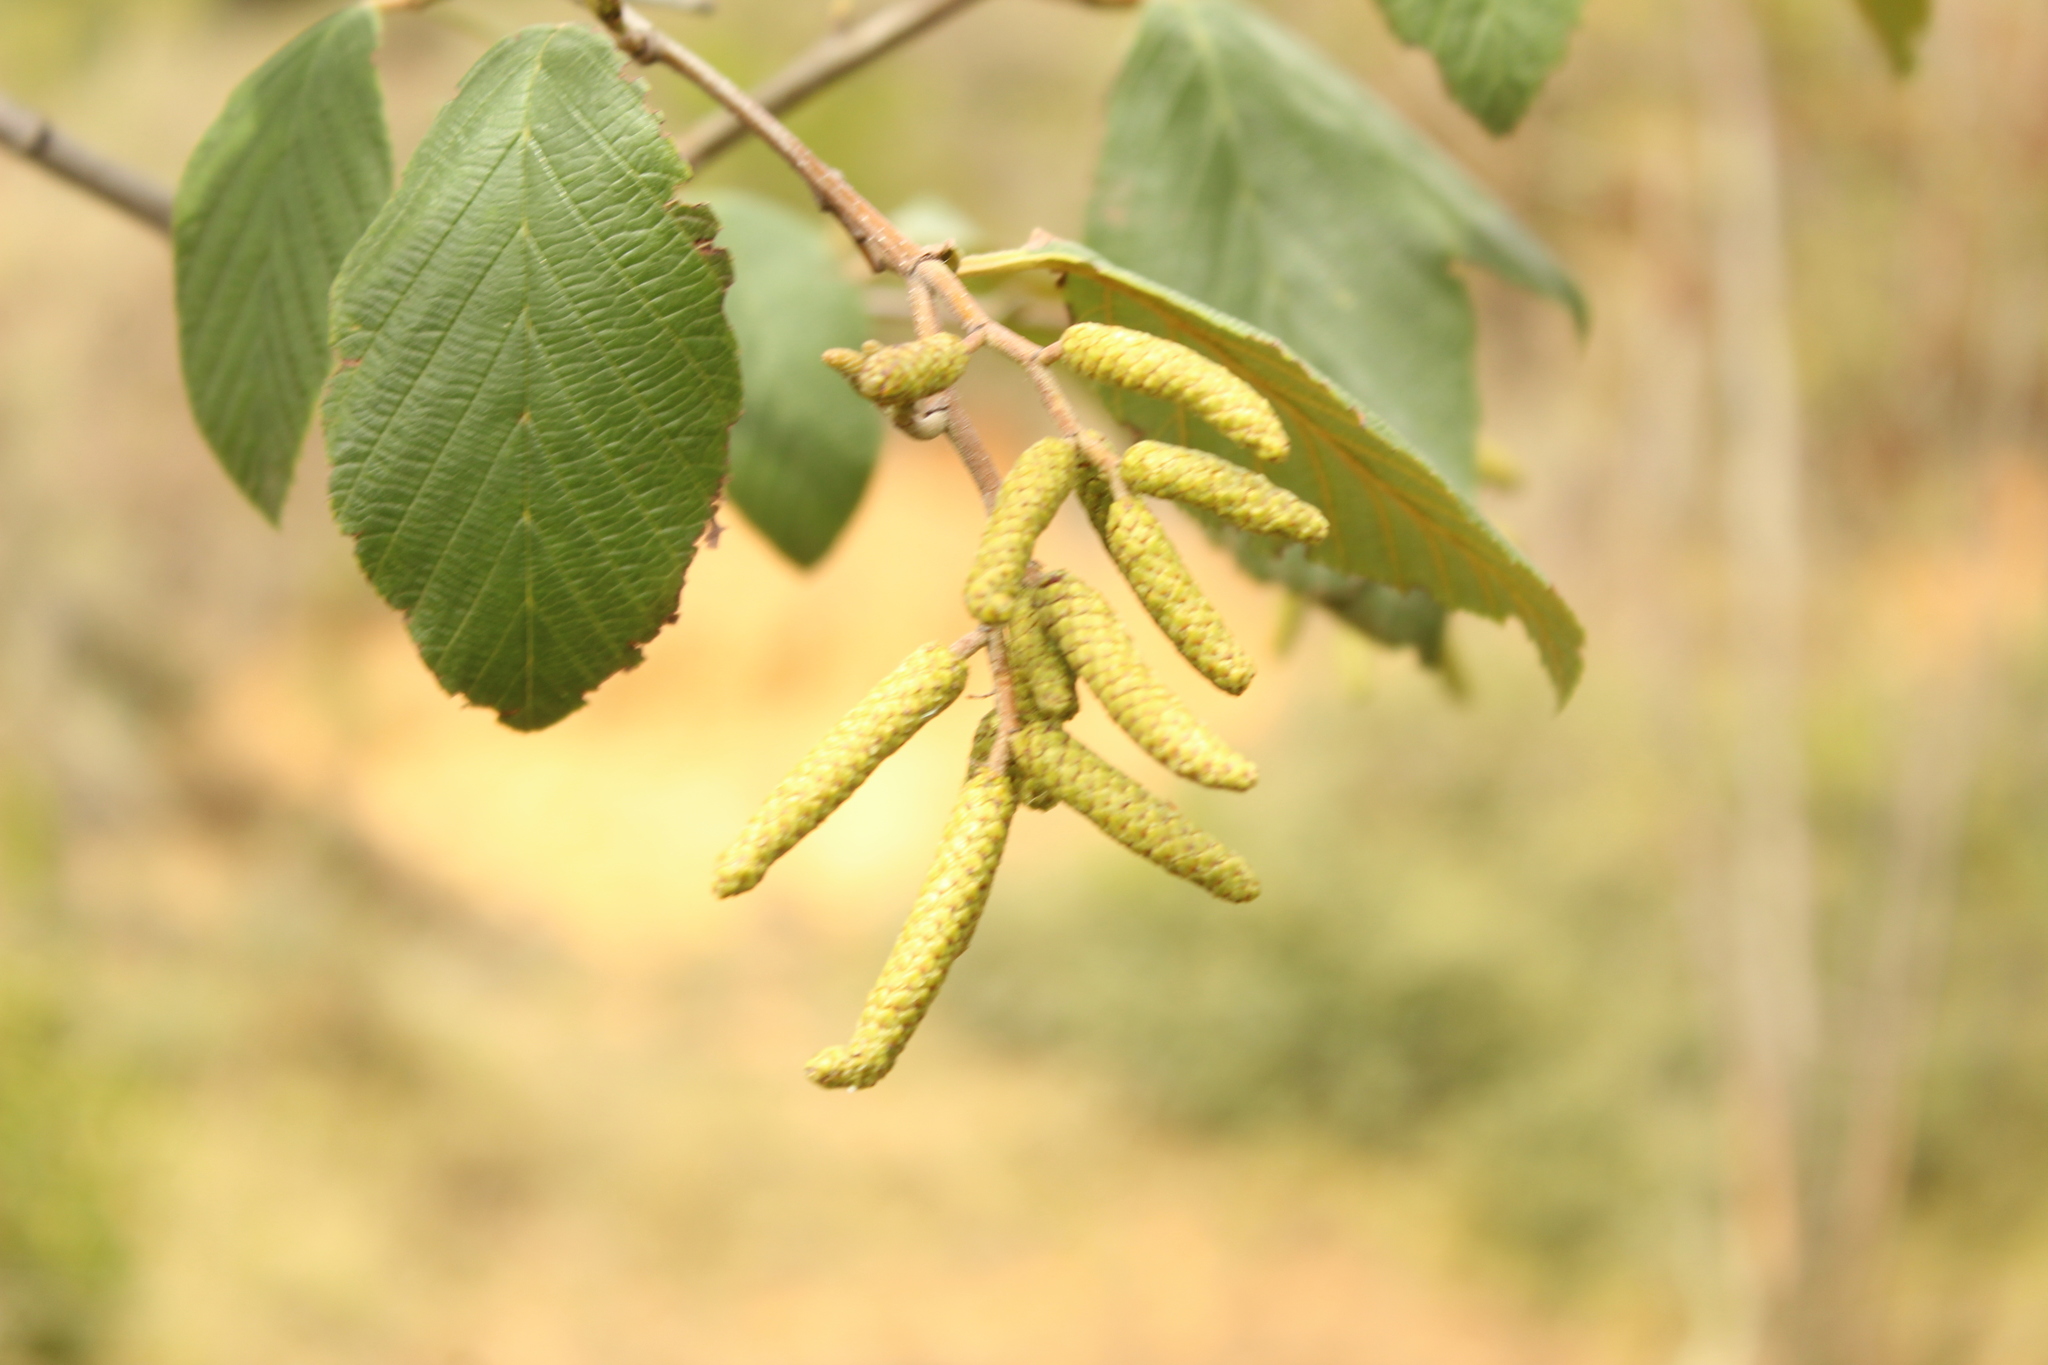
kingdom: Plantae
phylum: Tracheophyta
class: Magnoliopsida
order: Fagales
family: Betulaceae
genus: Alnus
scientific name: Alnus acuminata
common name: Alder
